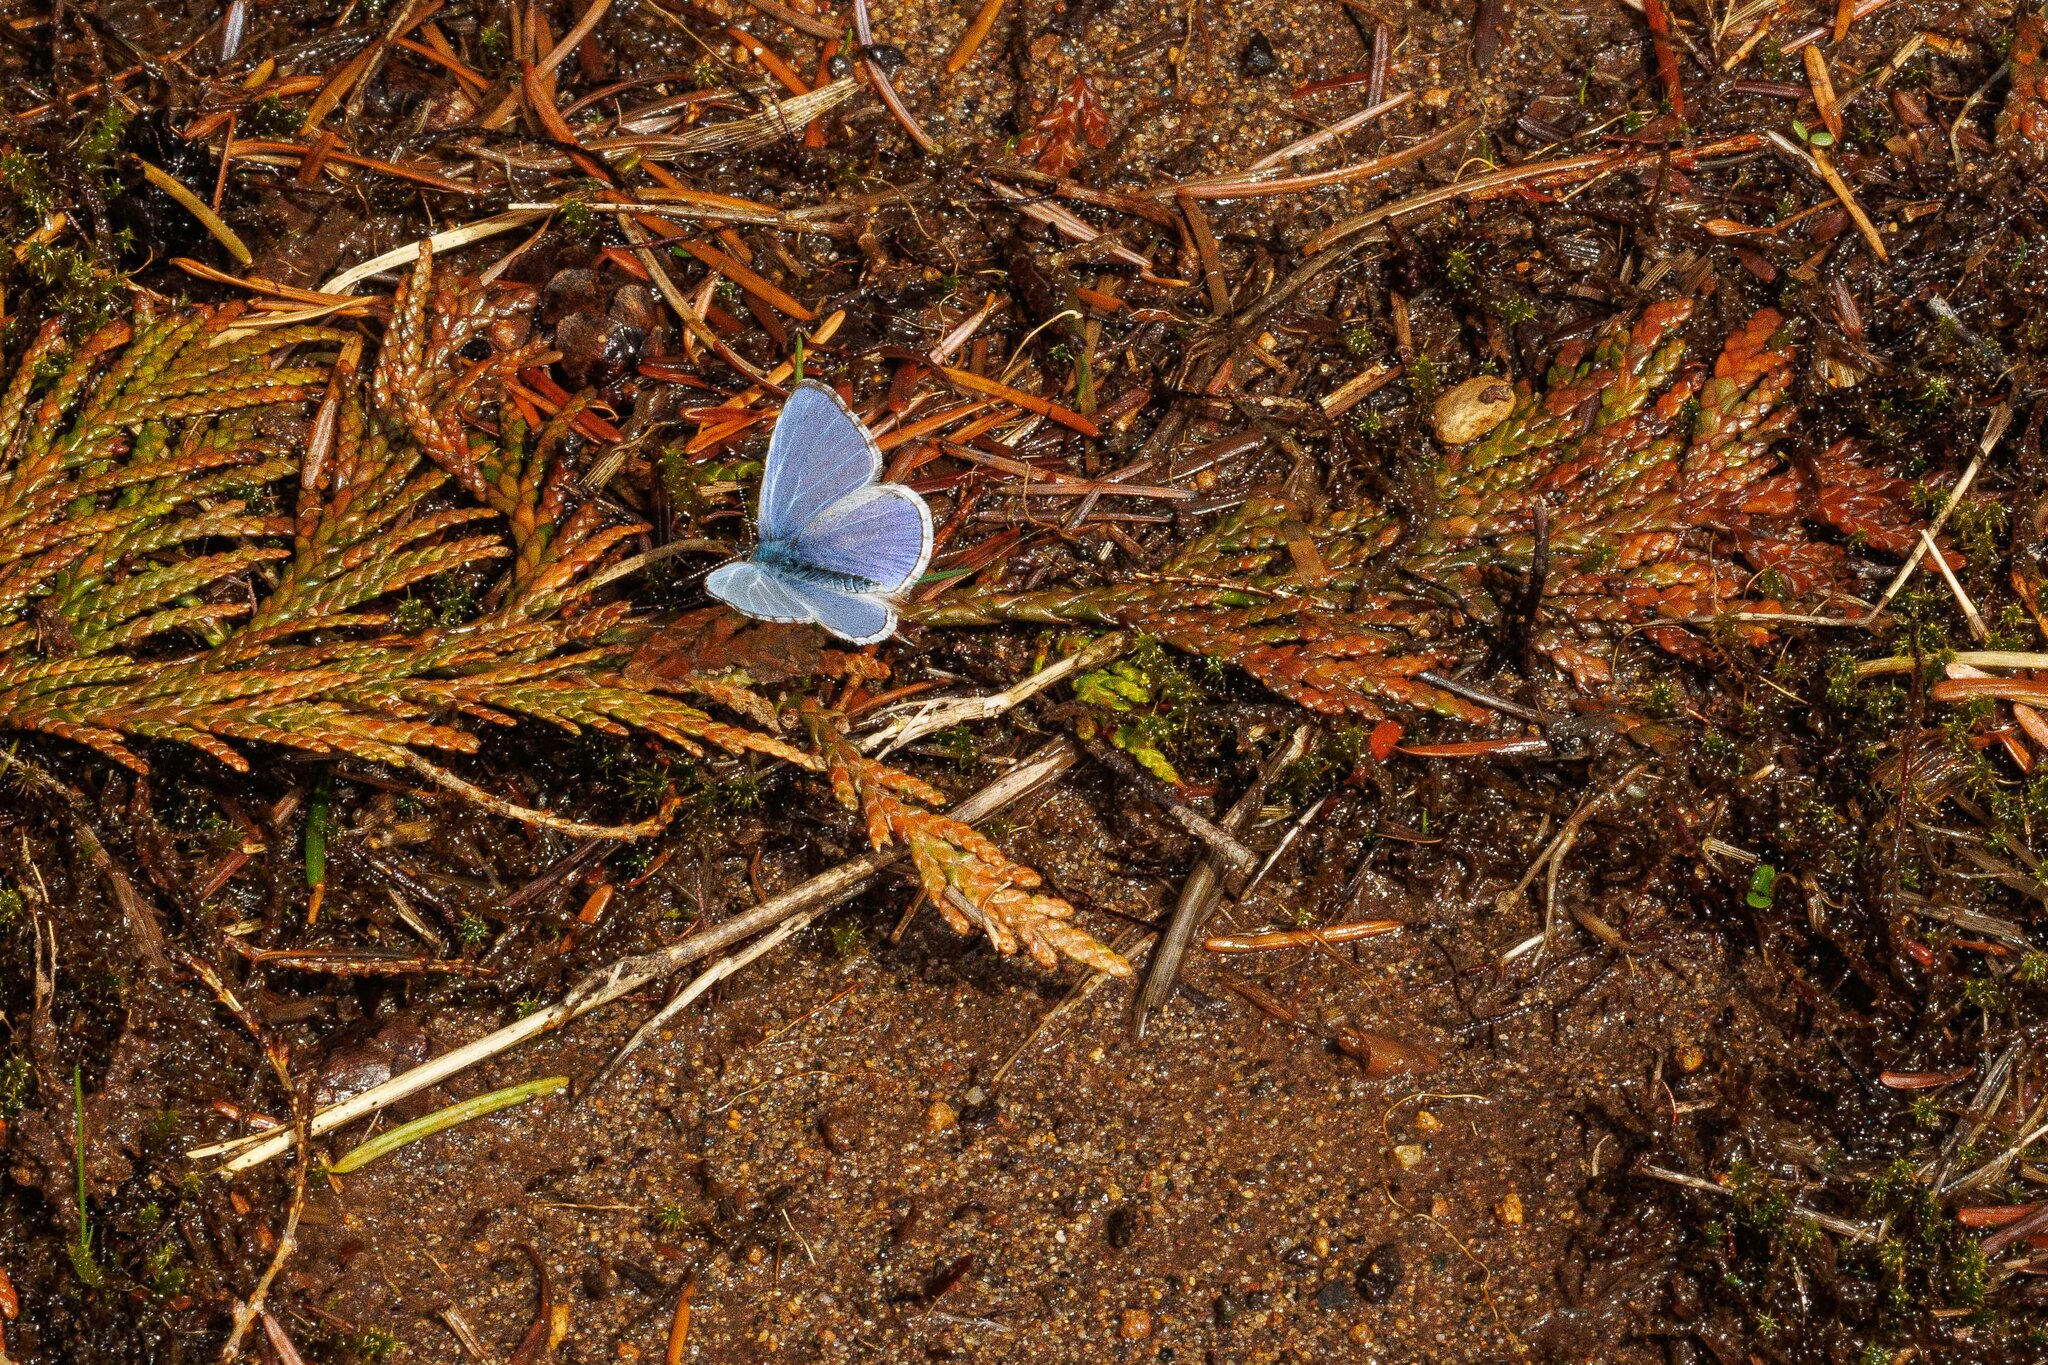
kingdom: Animalia
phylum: Arthropoda
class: Insecta
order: Lepidoptera
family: Lycaenidae
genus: Celastrina
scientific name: Celastrina ladon
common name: Spring azure
